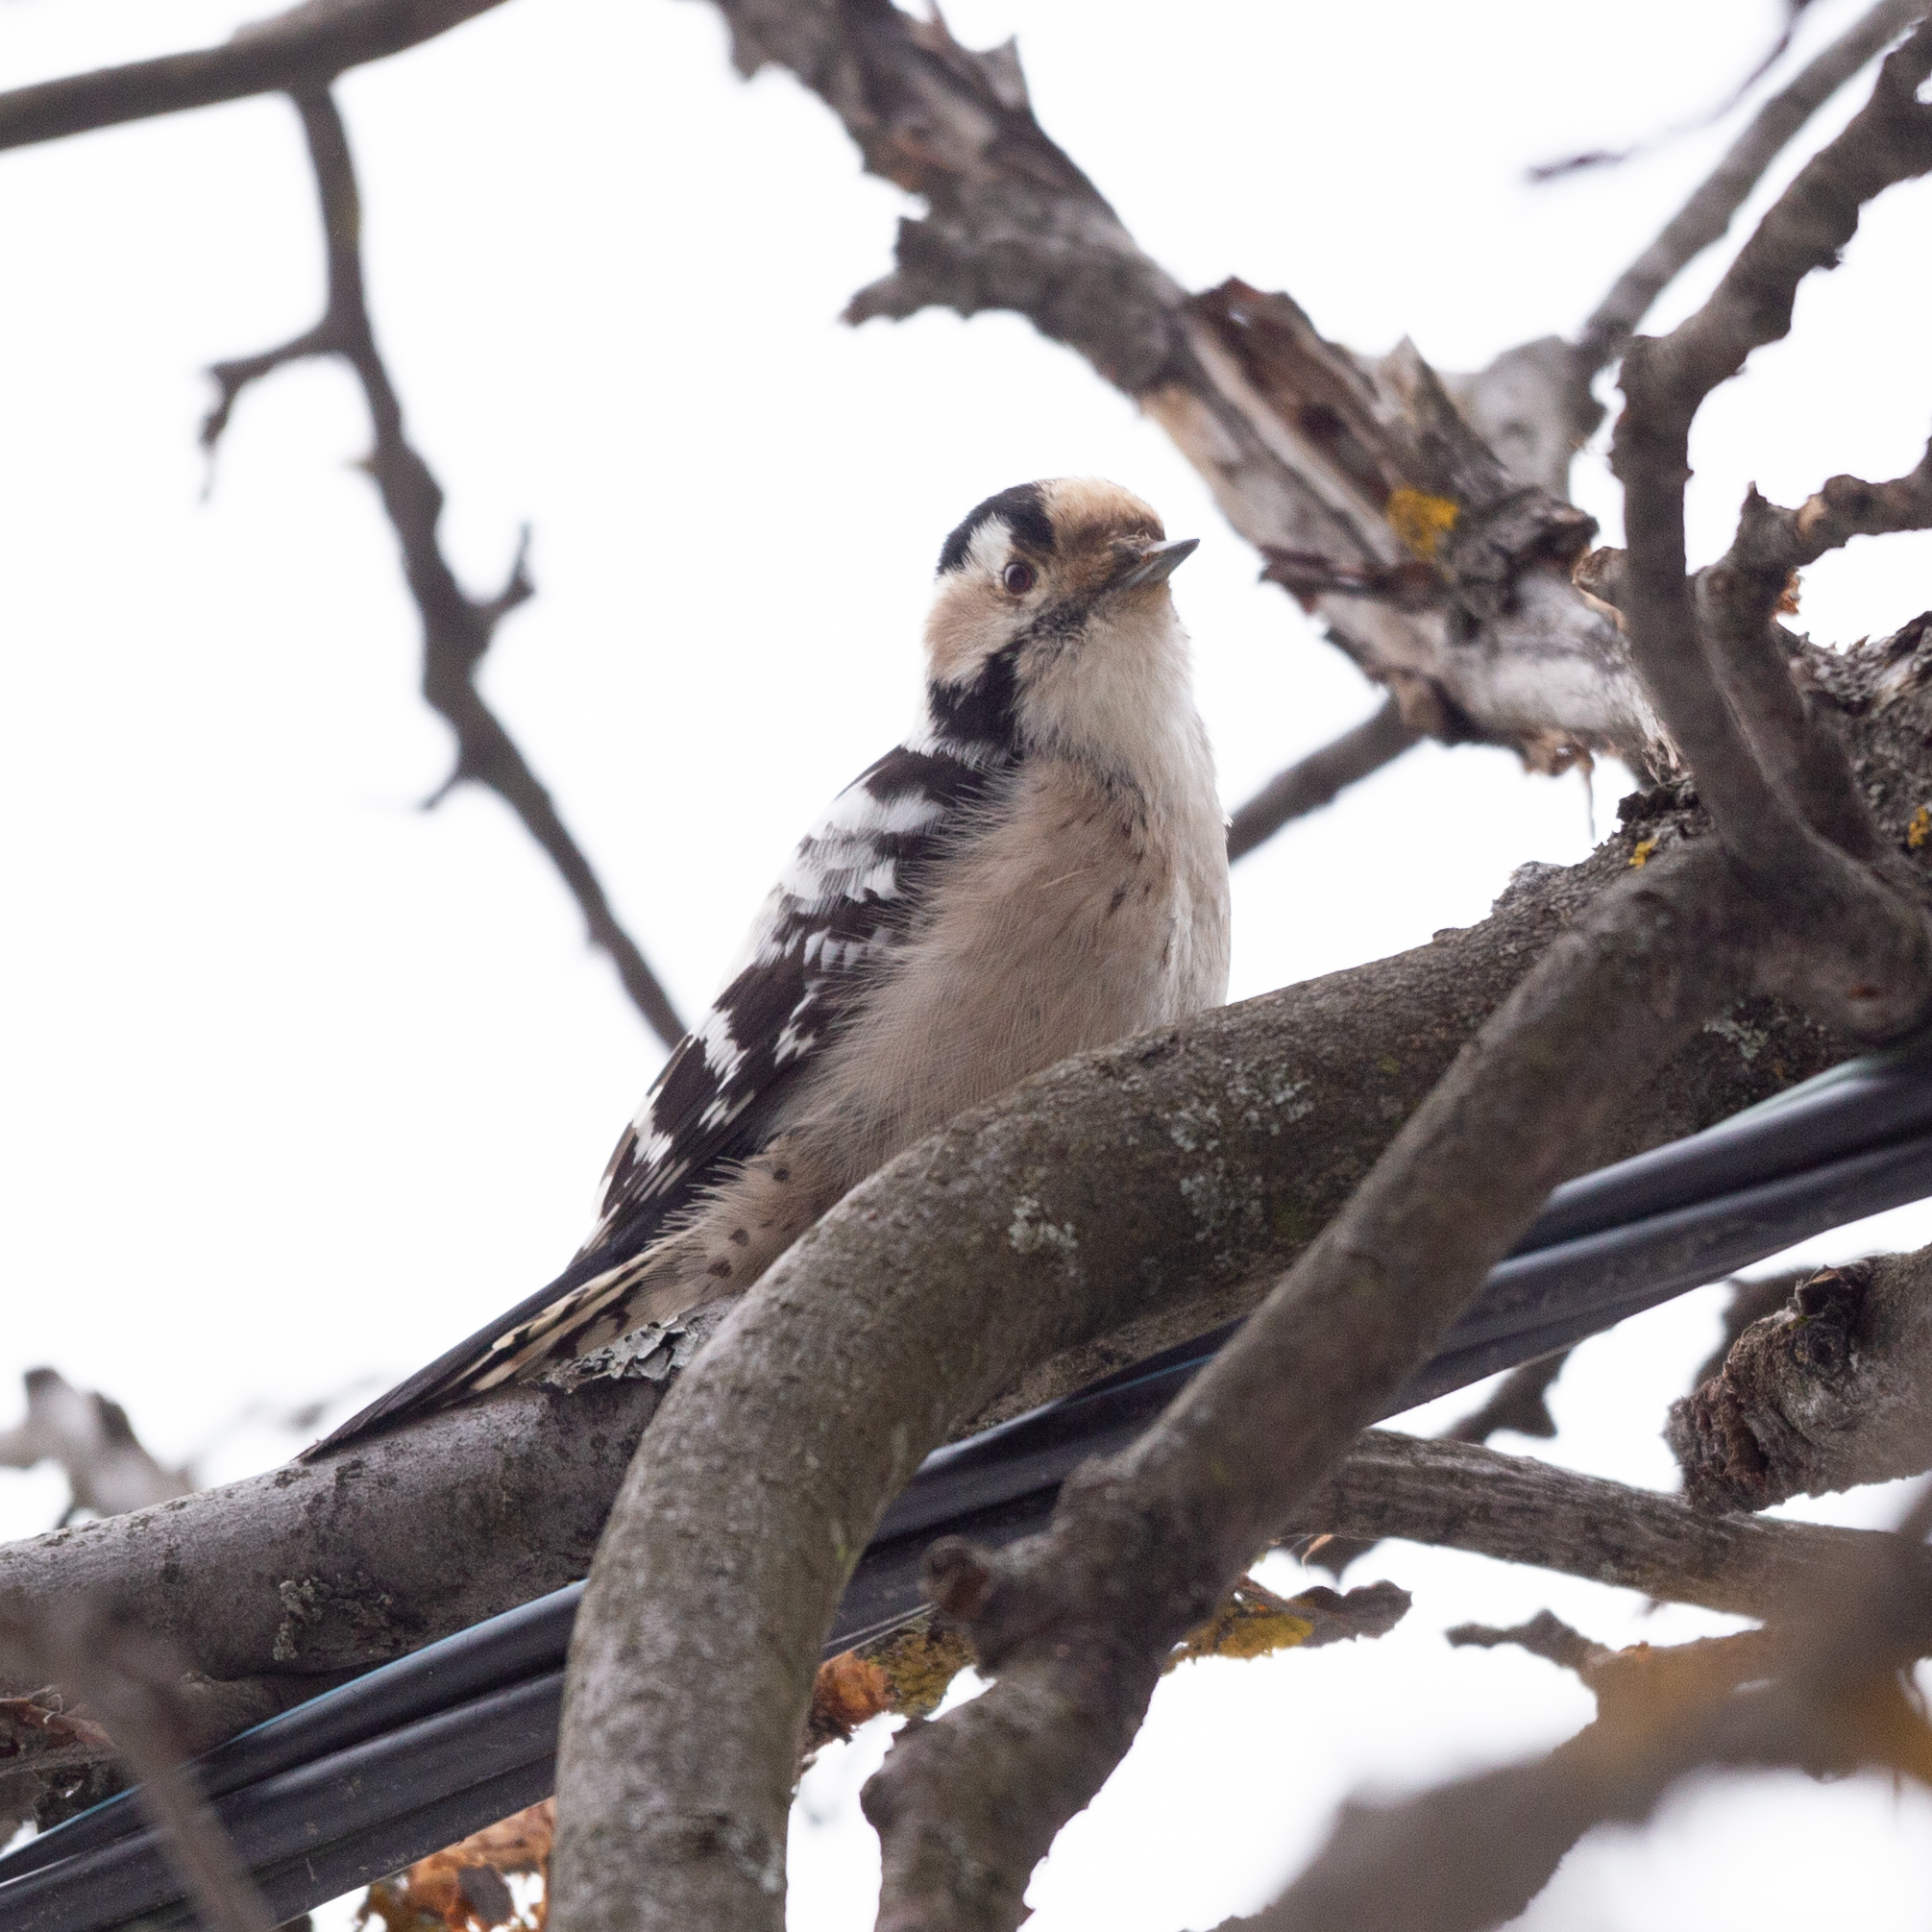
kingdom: Animalia
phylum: Chordata
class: Aves
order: Piciformes
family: Picidae
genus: Dryobates
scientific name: Dryobates minor
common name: Lesser spotted woodpecker
